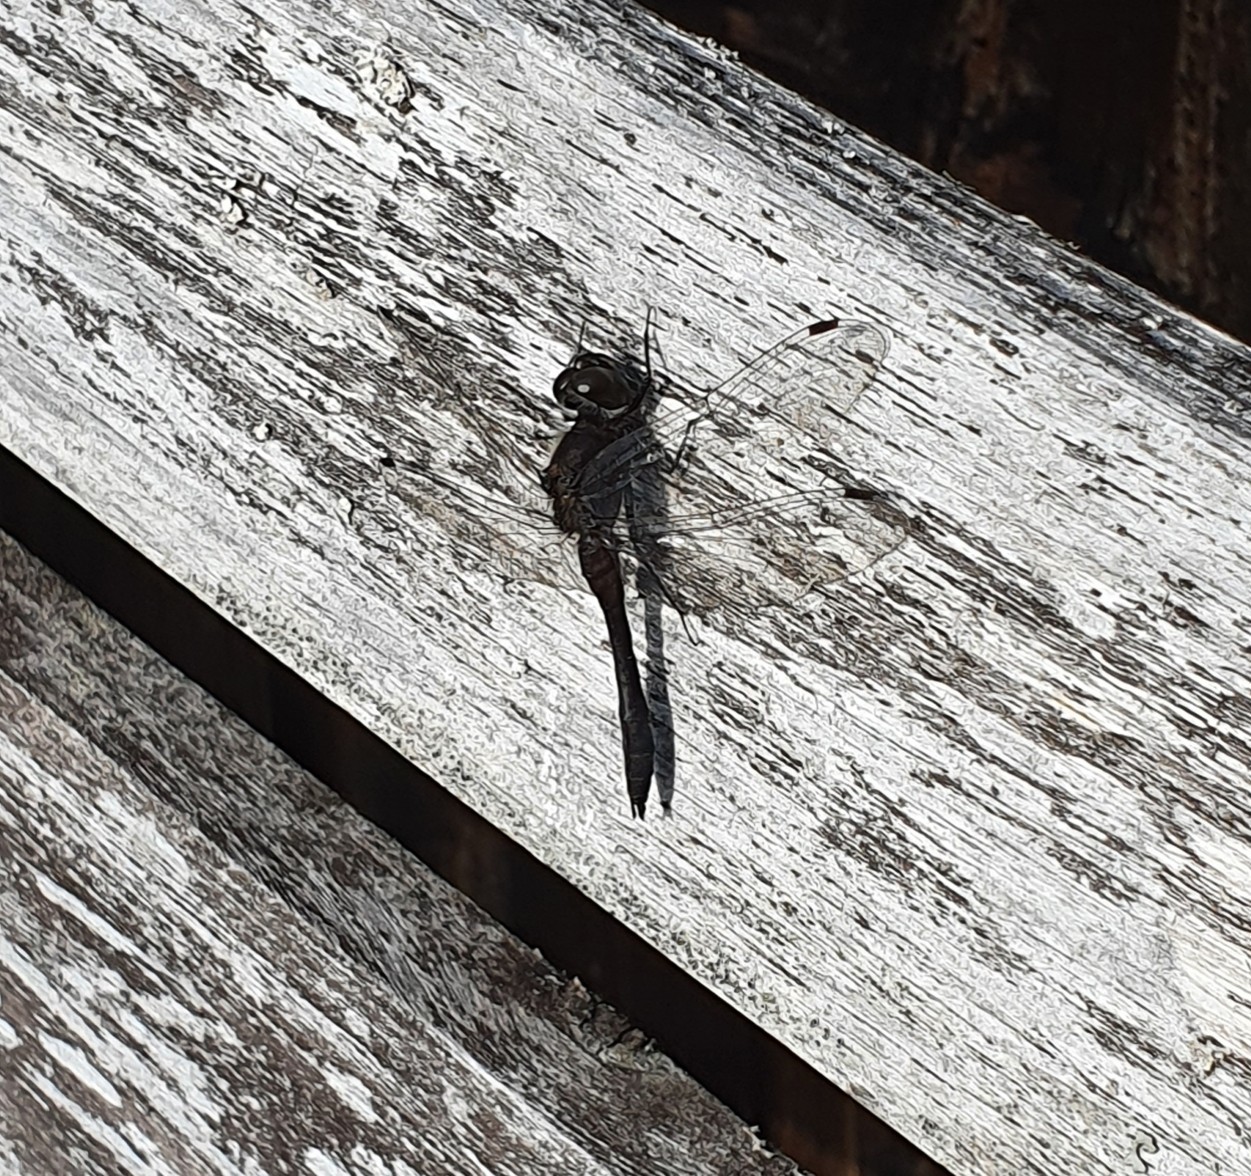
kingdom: Animalia
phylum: Arthropoda
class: Insecta
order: Odonata
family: Libellulidae
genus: Sympetrum
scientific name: Sympetrum danae
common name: Black darter
